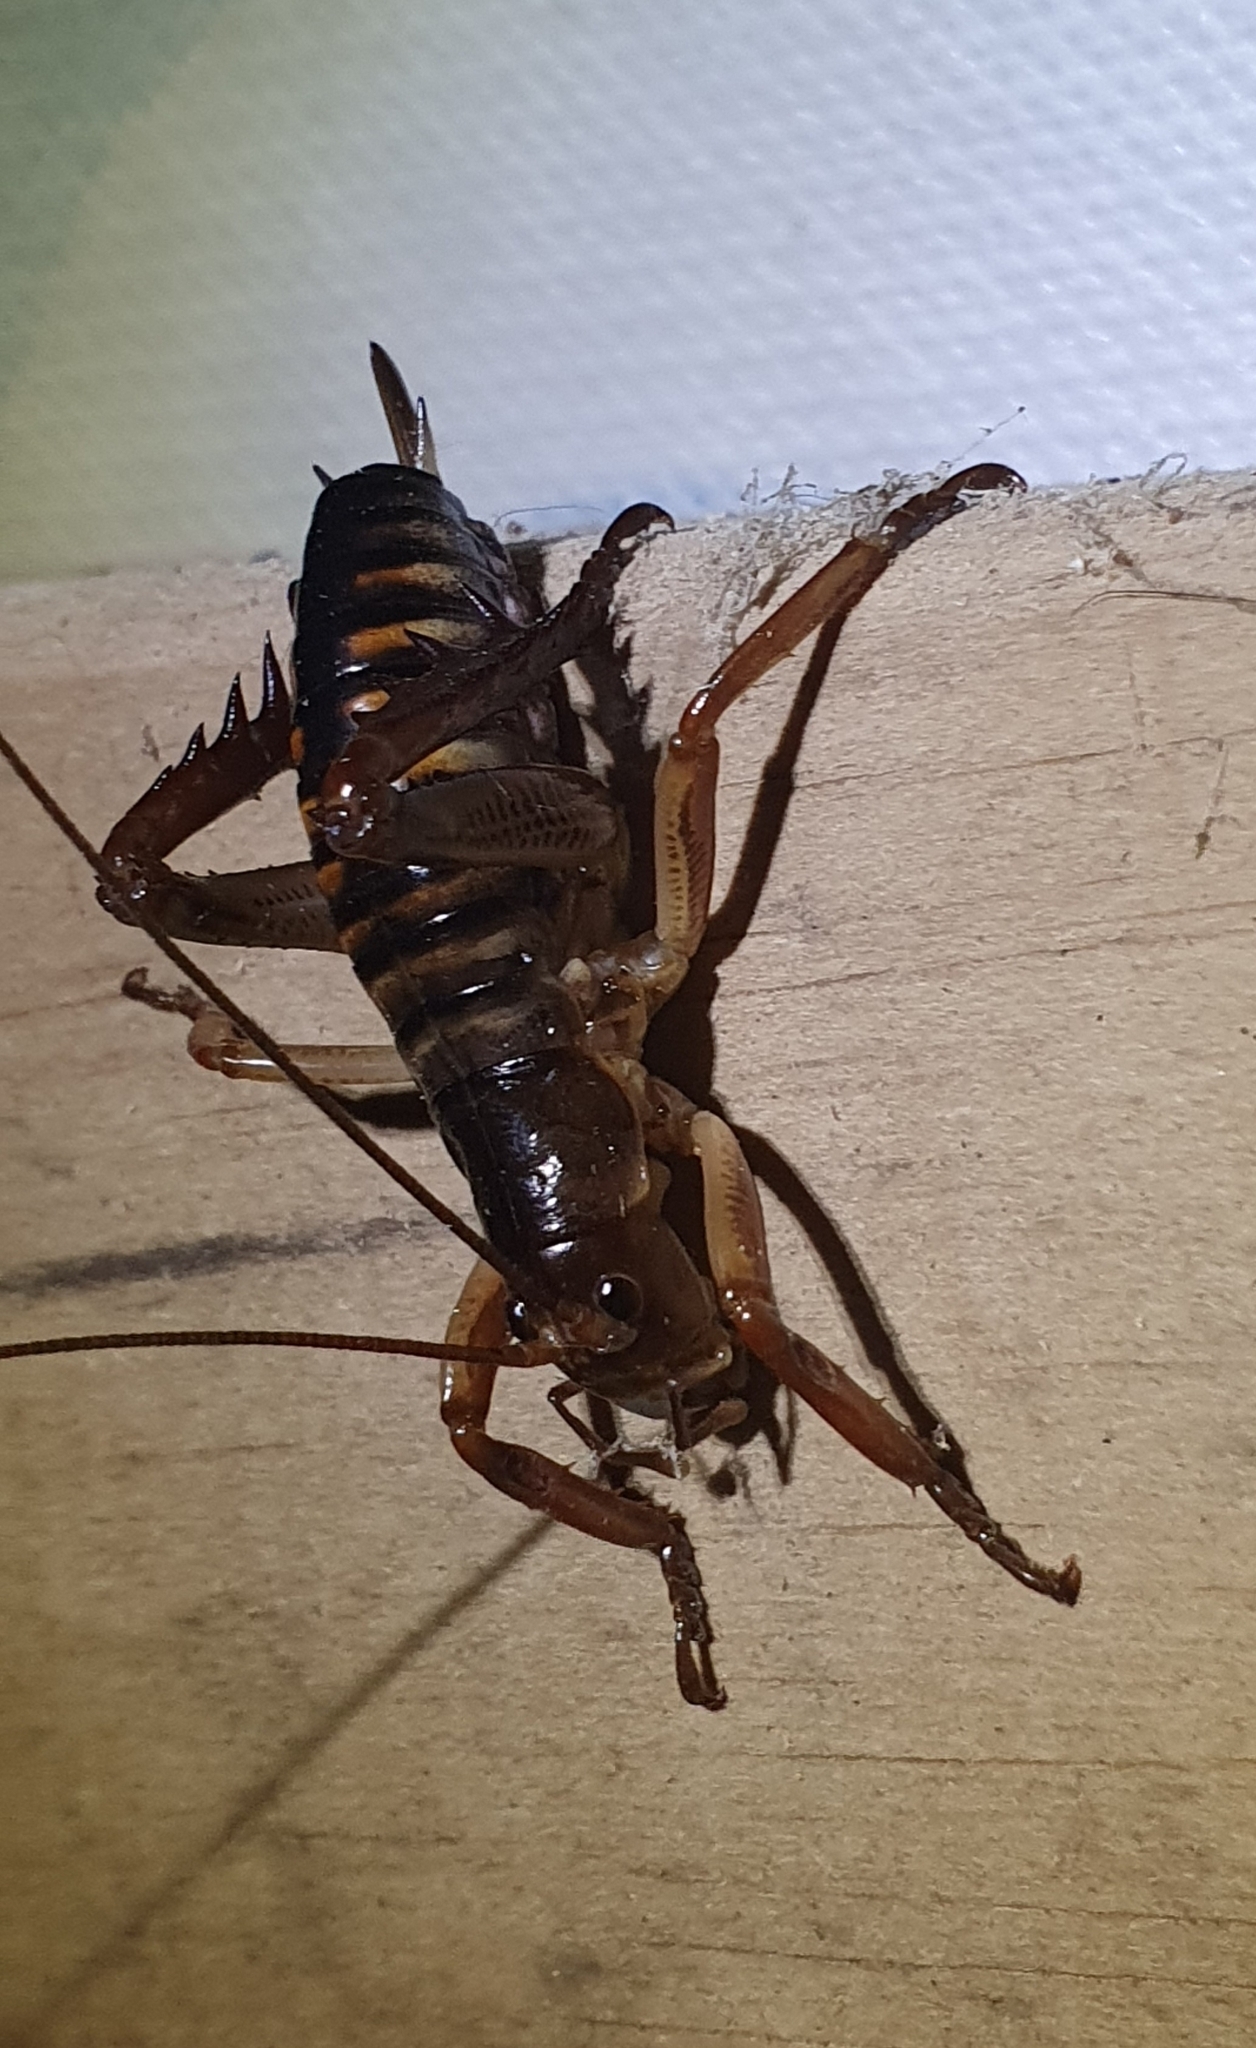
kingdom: Animalia
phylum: Arthropoda
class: Insecta
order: Orthoptera
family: Anostostomatidae
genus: Hemideina
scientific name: Hemideina crassidens
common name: Wellington tree weta
